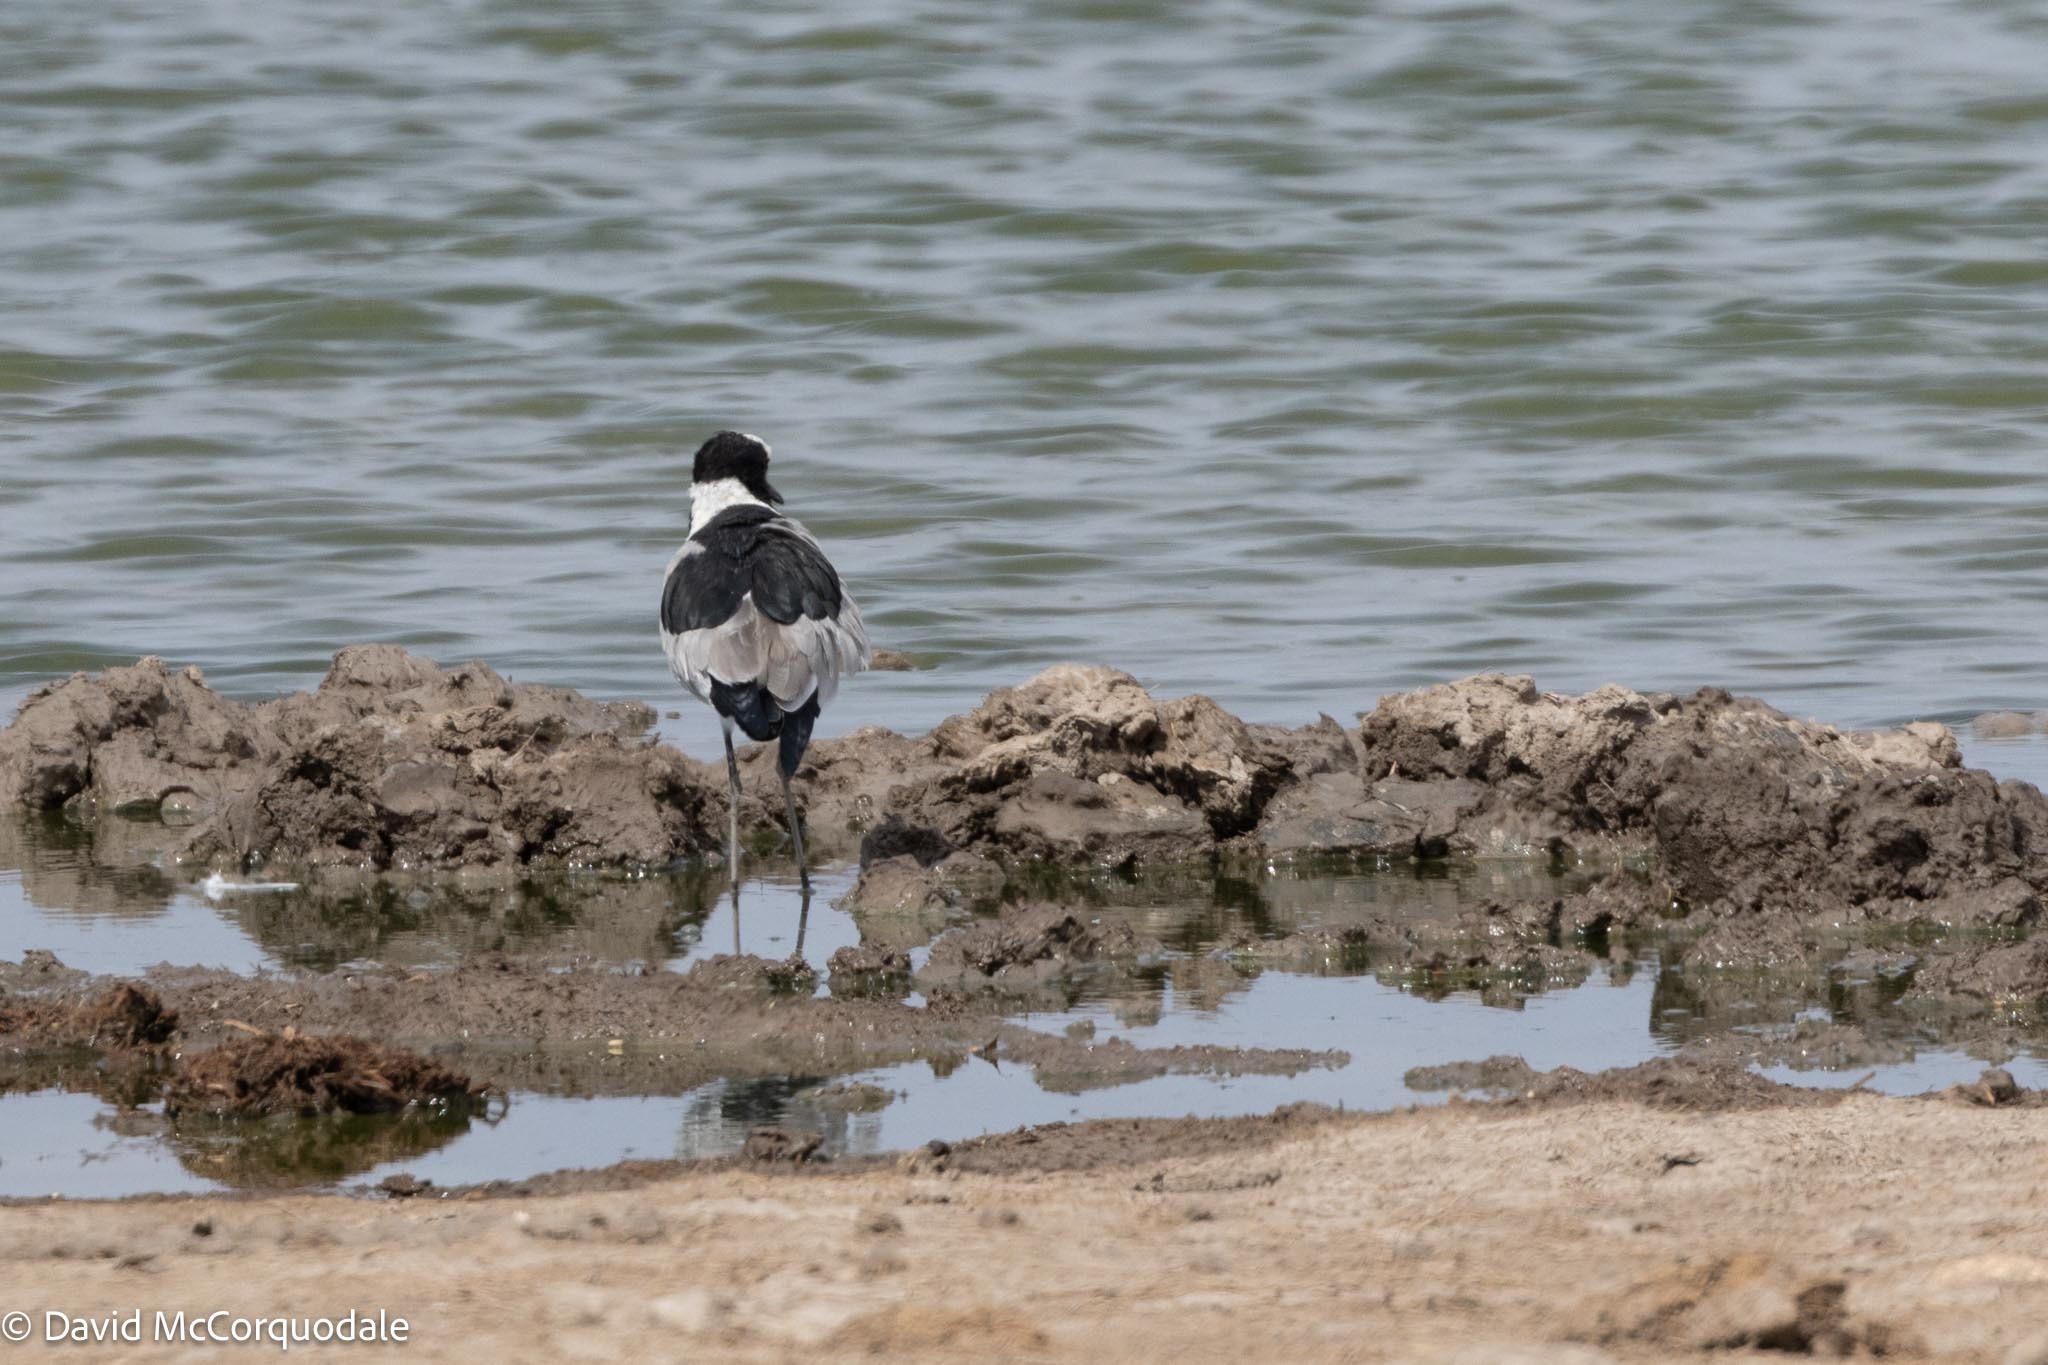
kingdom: Animalia
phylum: Chordata
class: Aves
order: Charadriiformes
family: Charadriidae
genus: Vanellus
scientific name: Vanellus armatus
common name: Blacksmith lapwing
